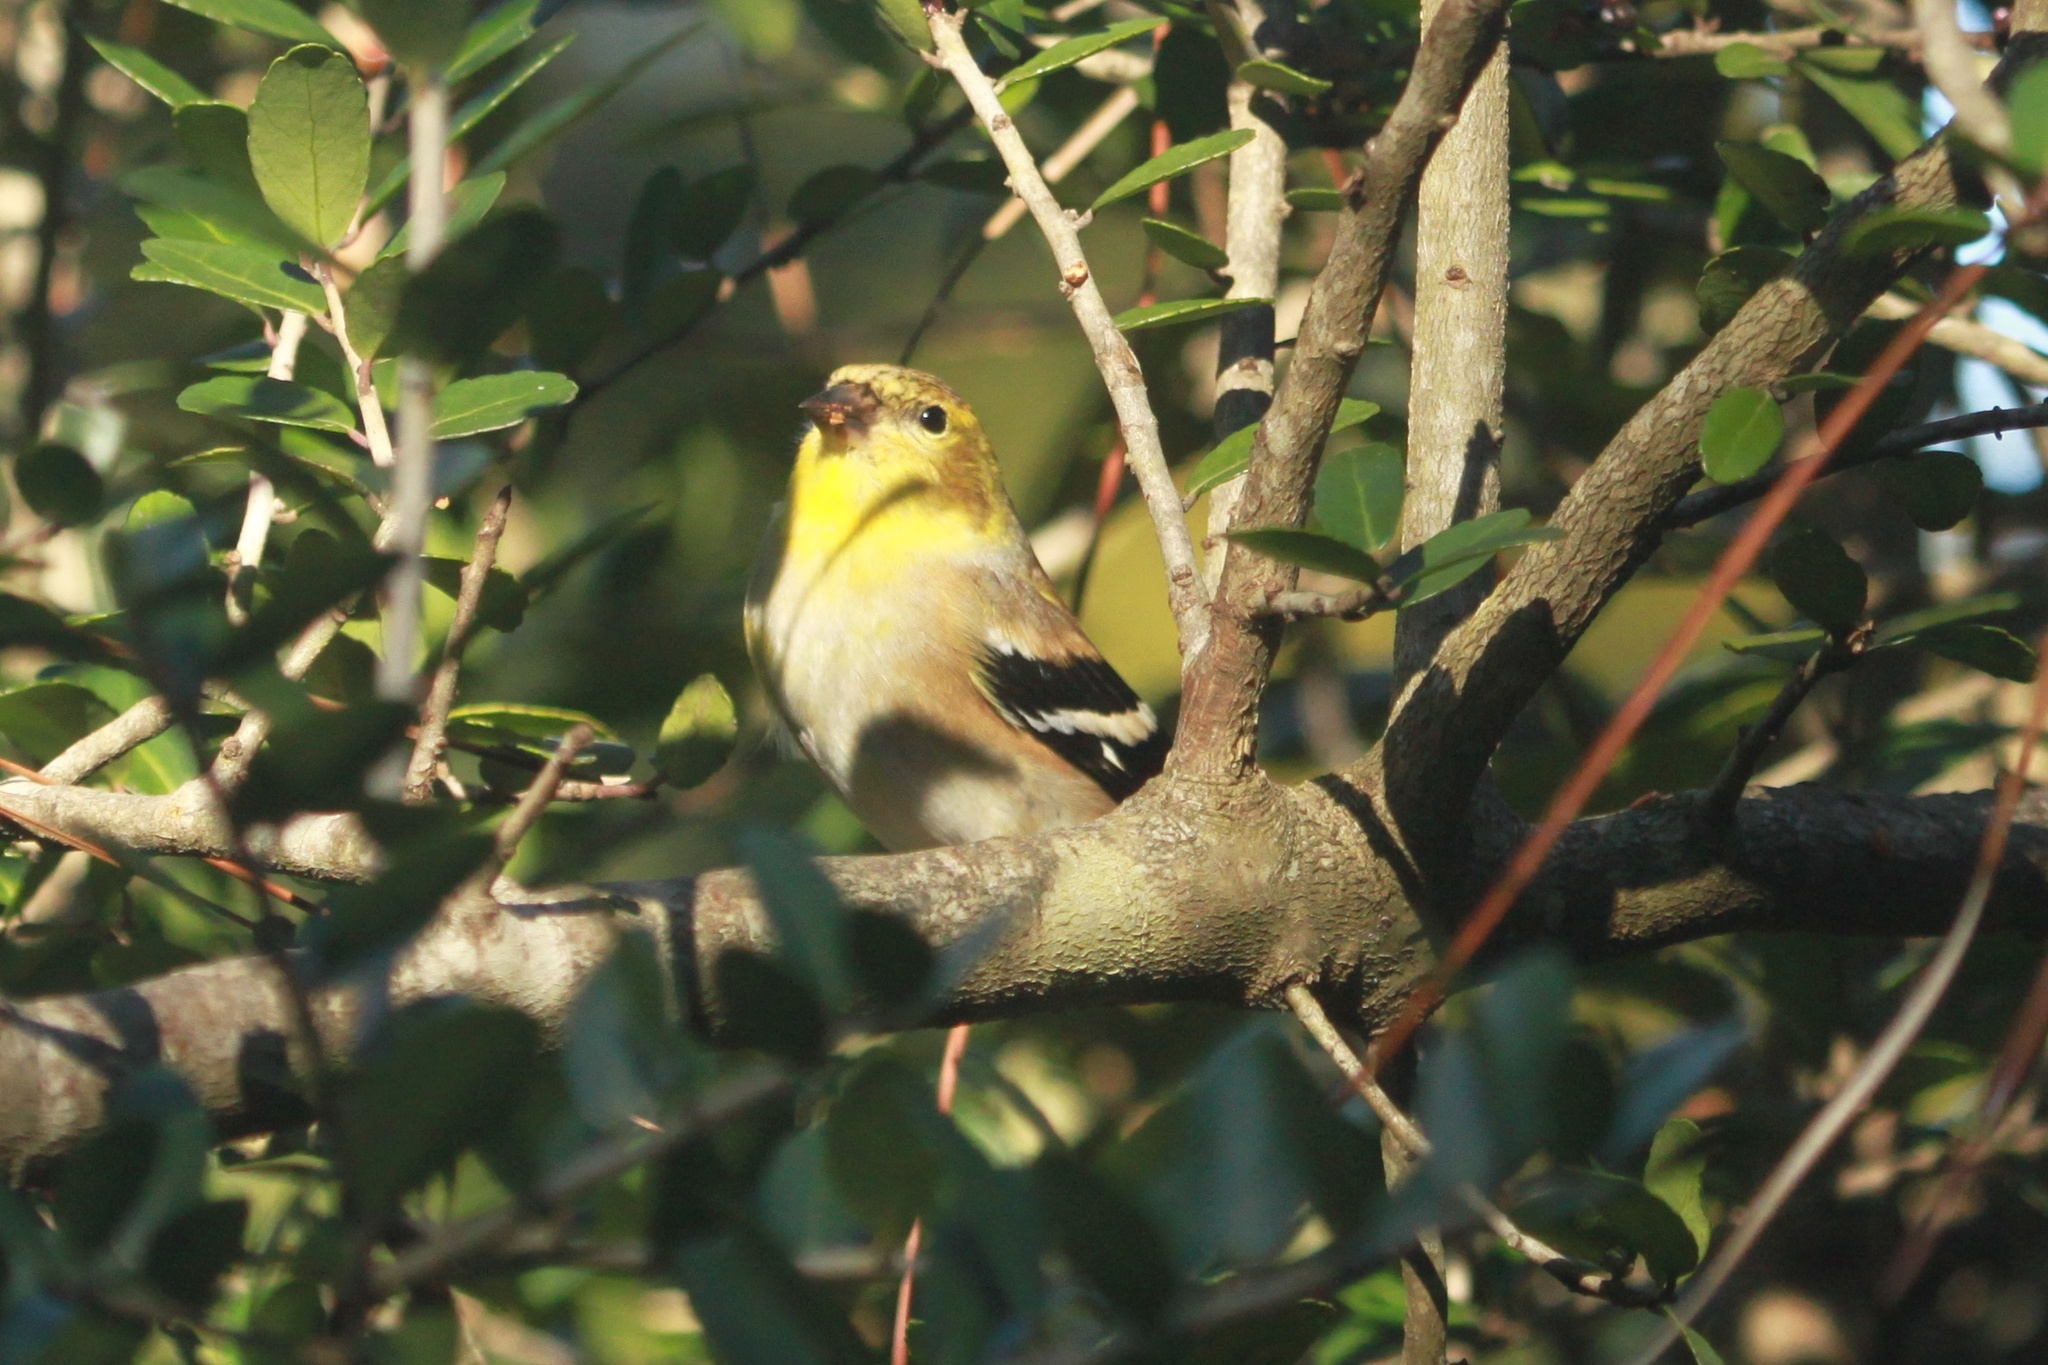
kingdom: Animalia
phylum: Chordata
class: Aves
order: Passeriformes
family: Fringillidae
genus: Spinus
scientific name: Spinus tristis
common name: American goldfinch
